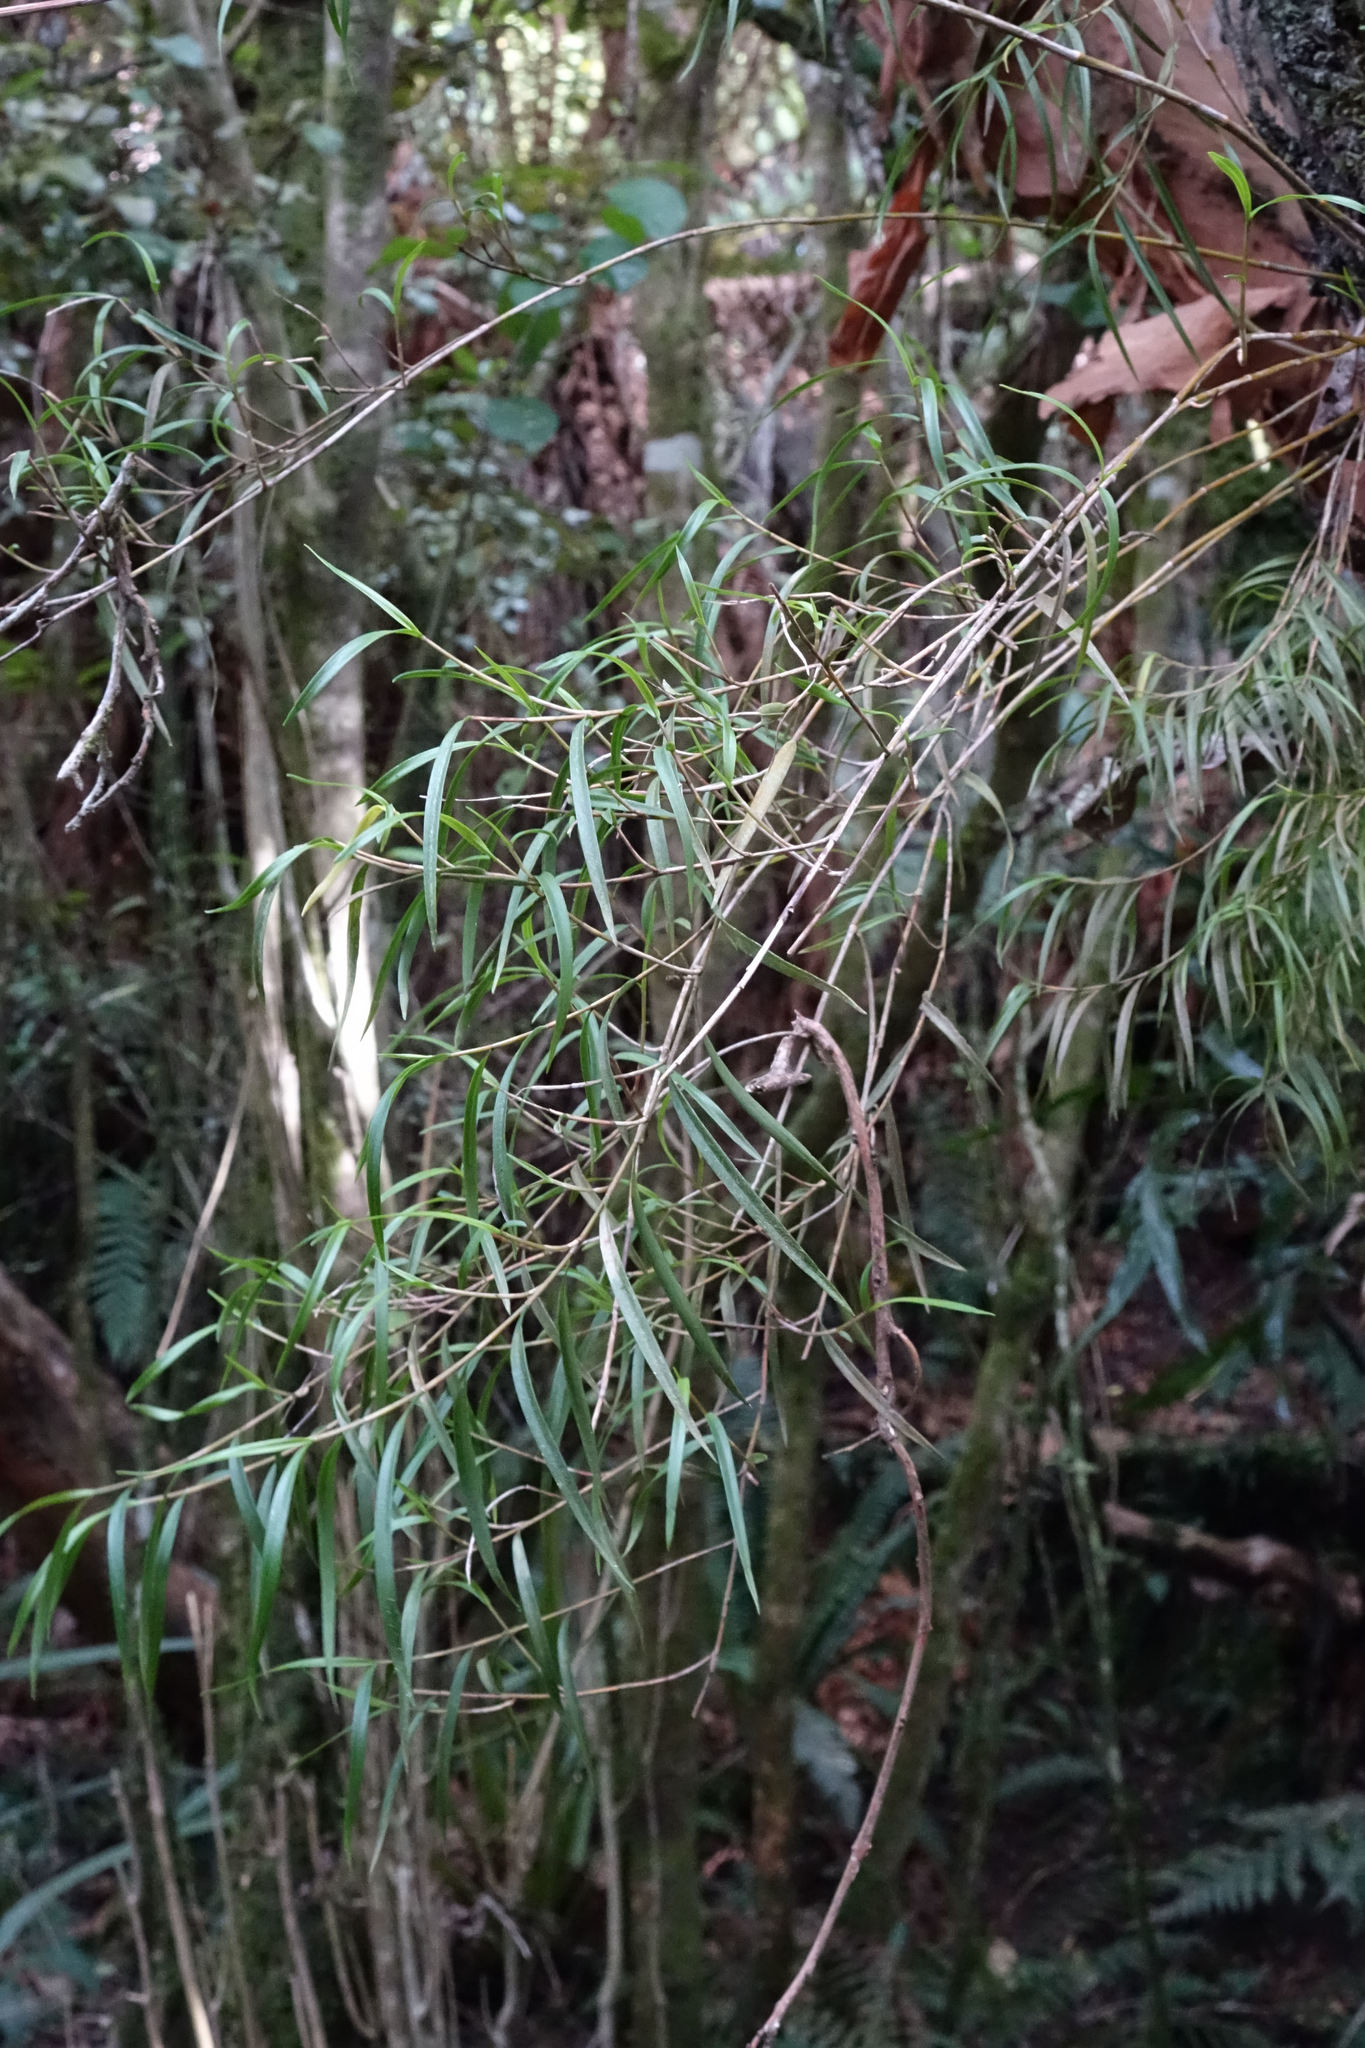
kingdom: Plantae
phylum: Tracheophyta
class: Liliopsida
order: Asparagales
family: Orchidaceae
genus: Dendrobium
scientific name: Dendrobium cunninghamii
